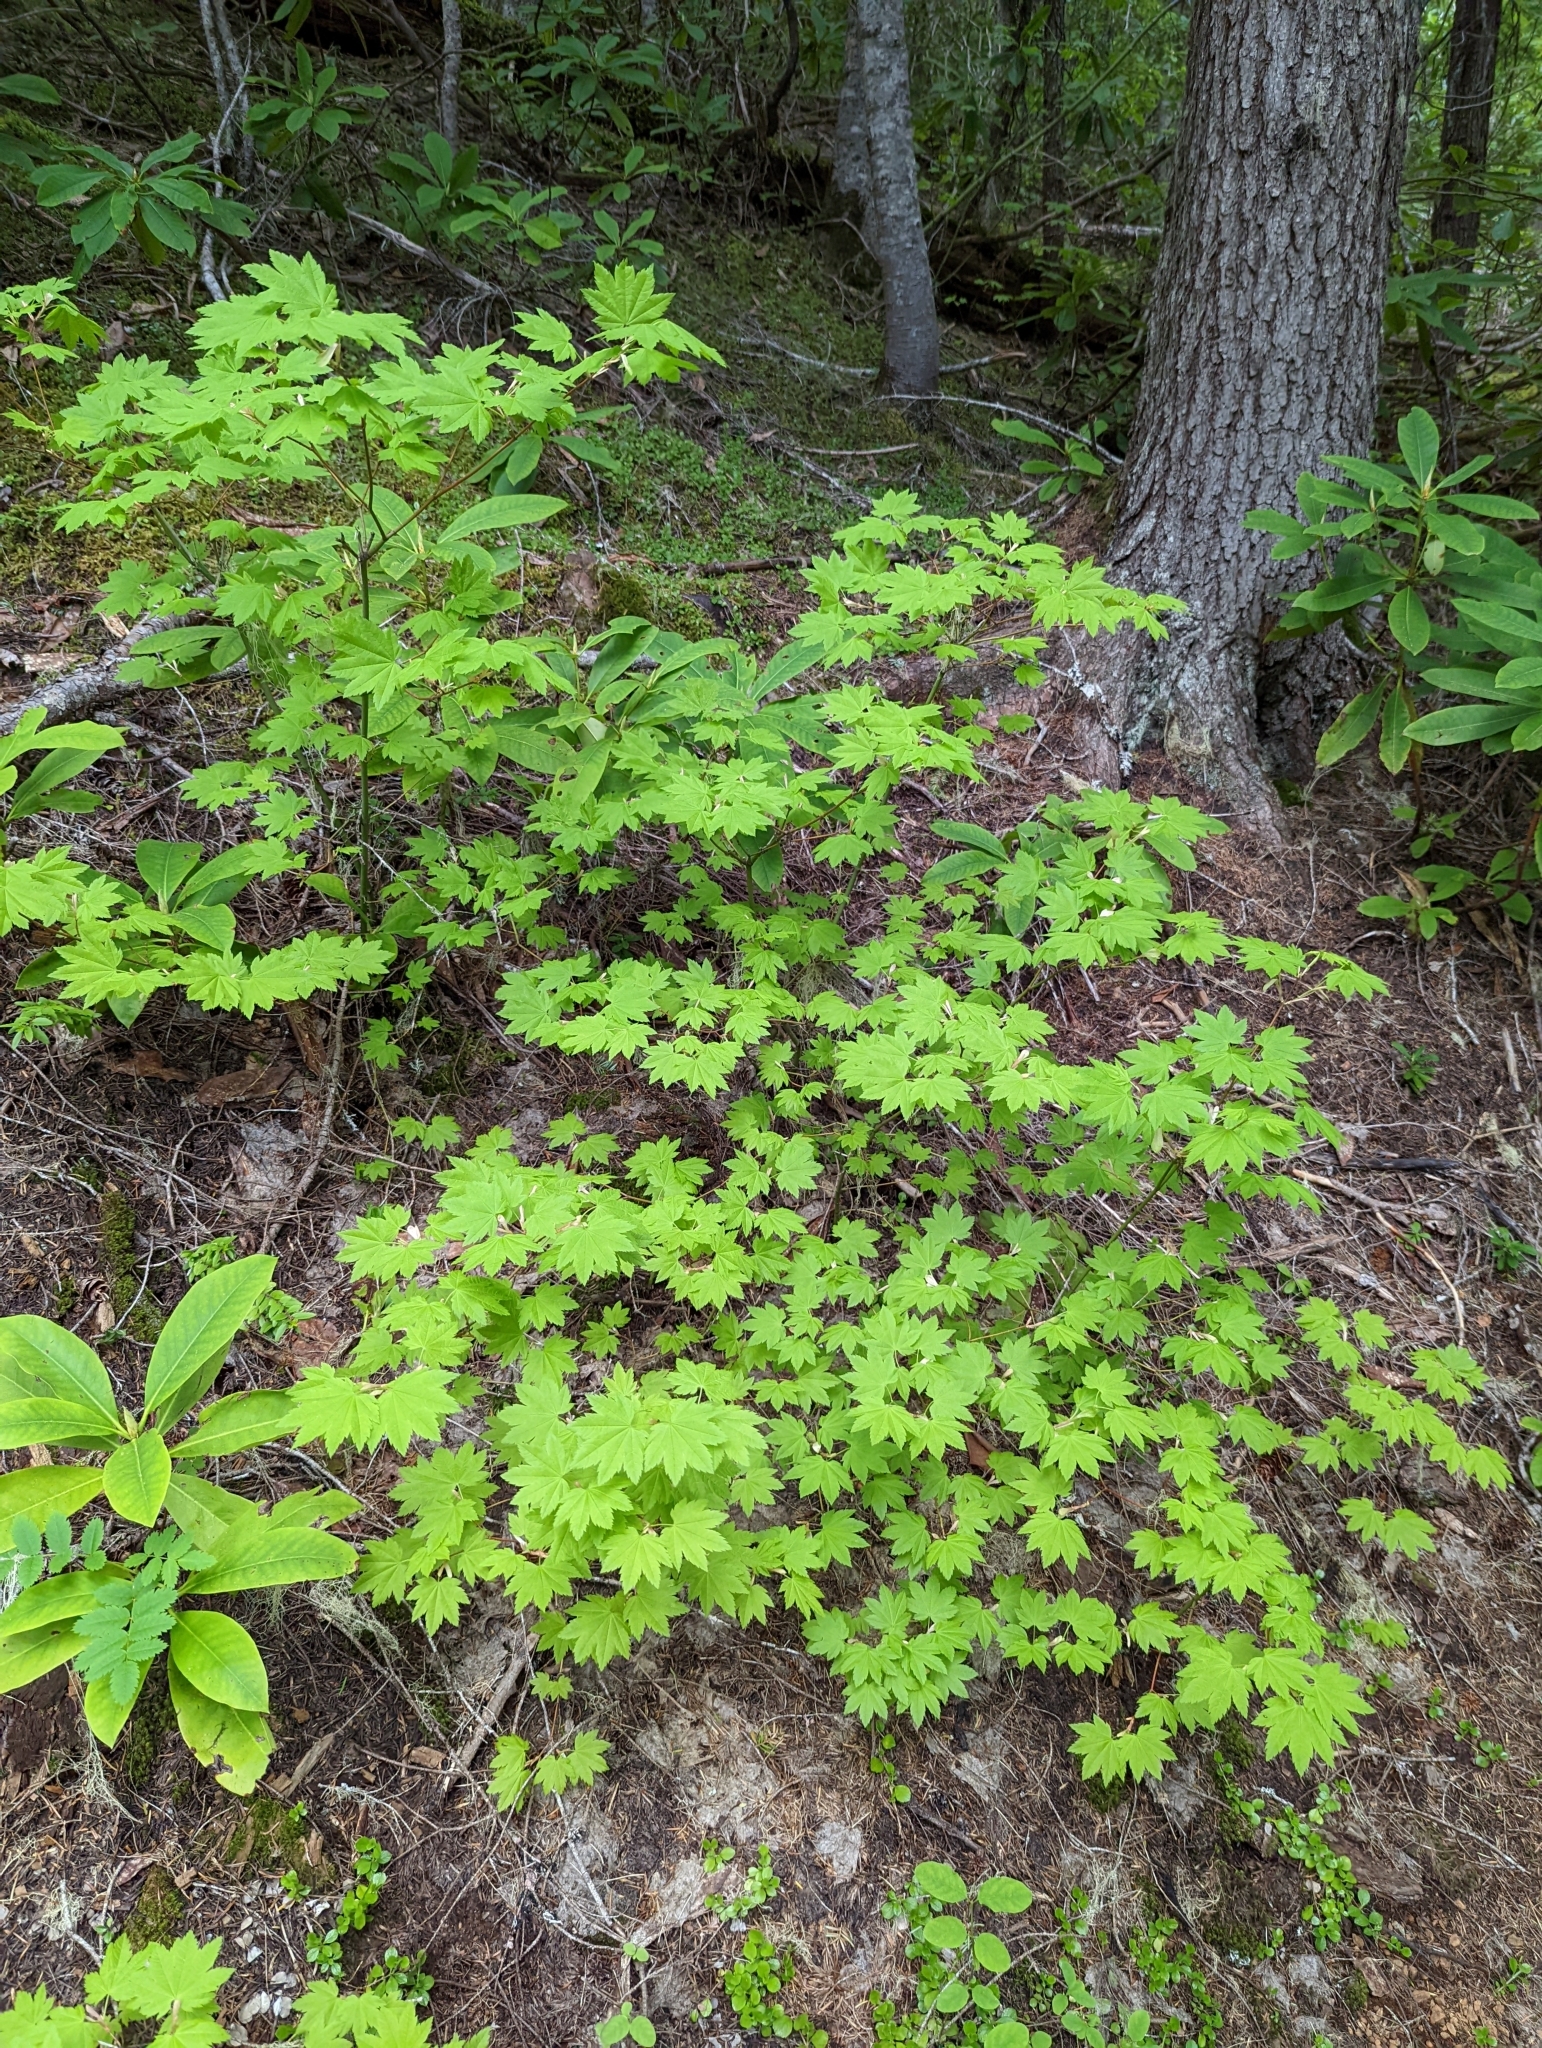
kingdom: Plantae
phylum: Tracheophyta
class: Magnoliopsida
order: Sapindales
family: Sapindaceae
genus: Acer
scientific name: Acer circinatum
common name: Vine maple
